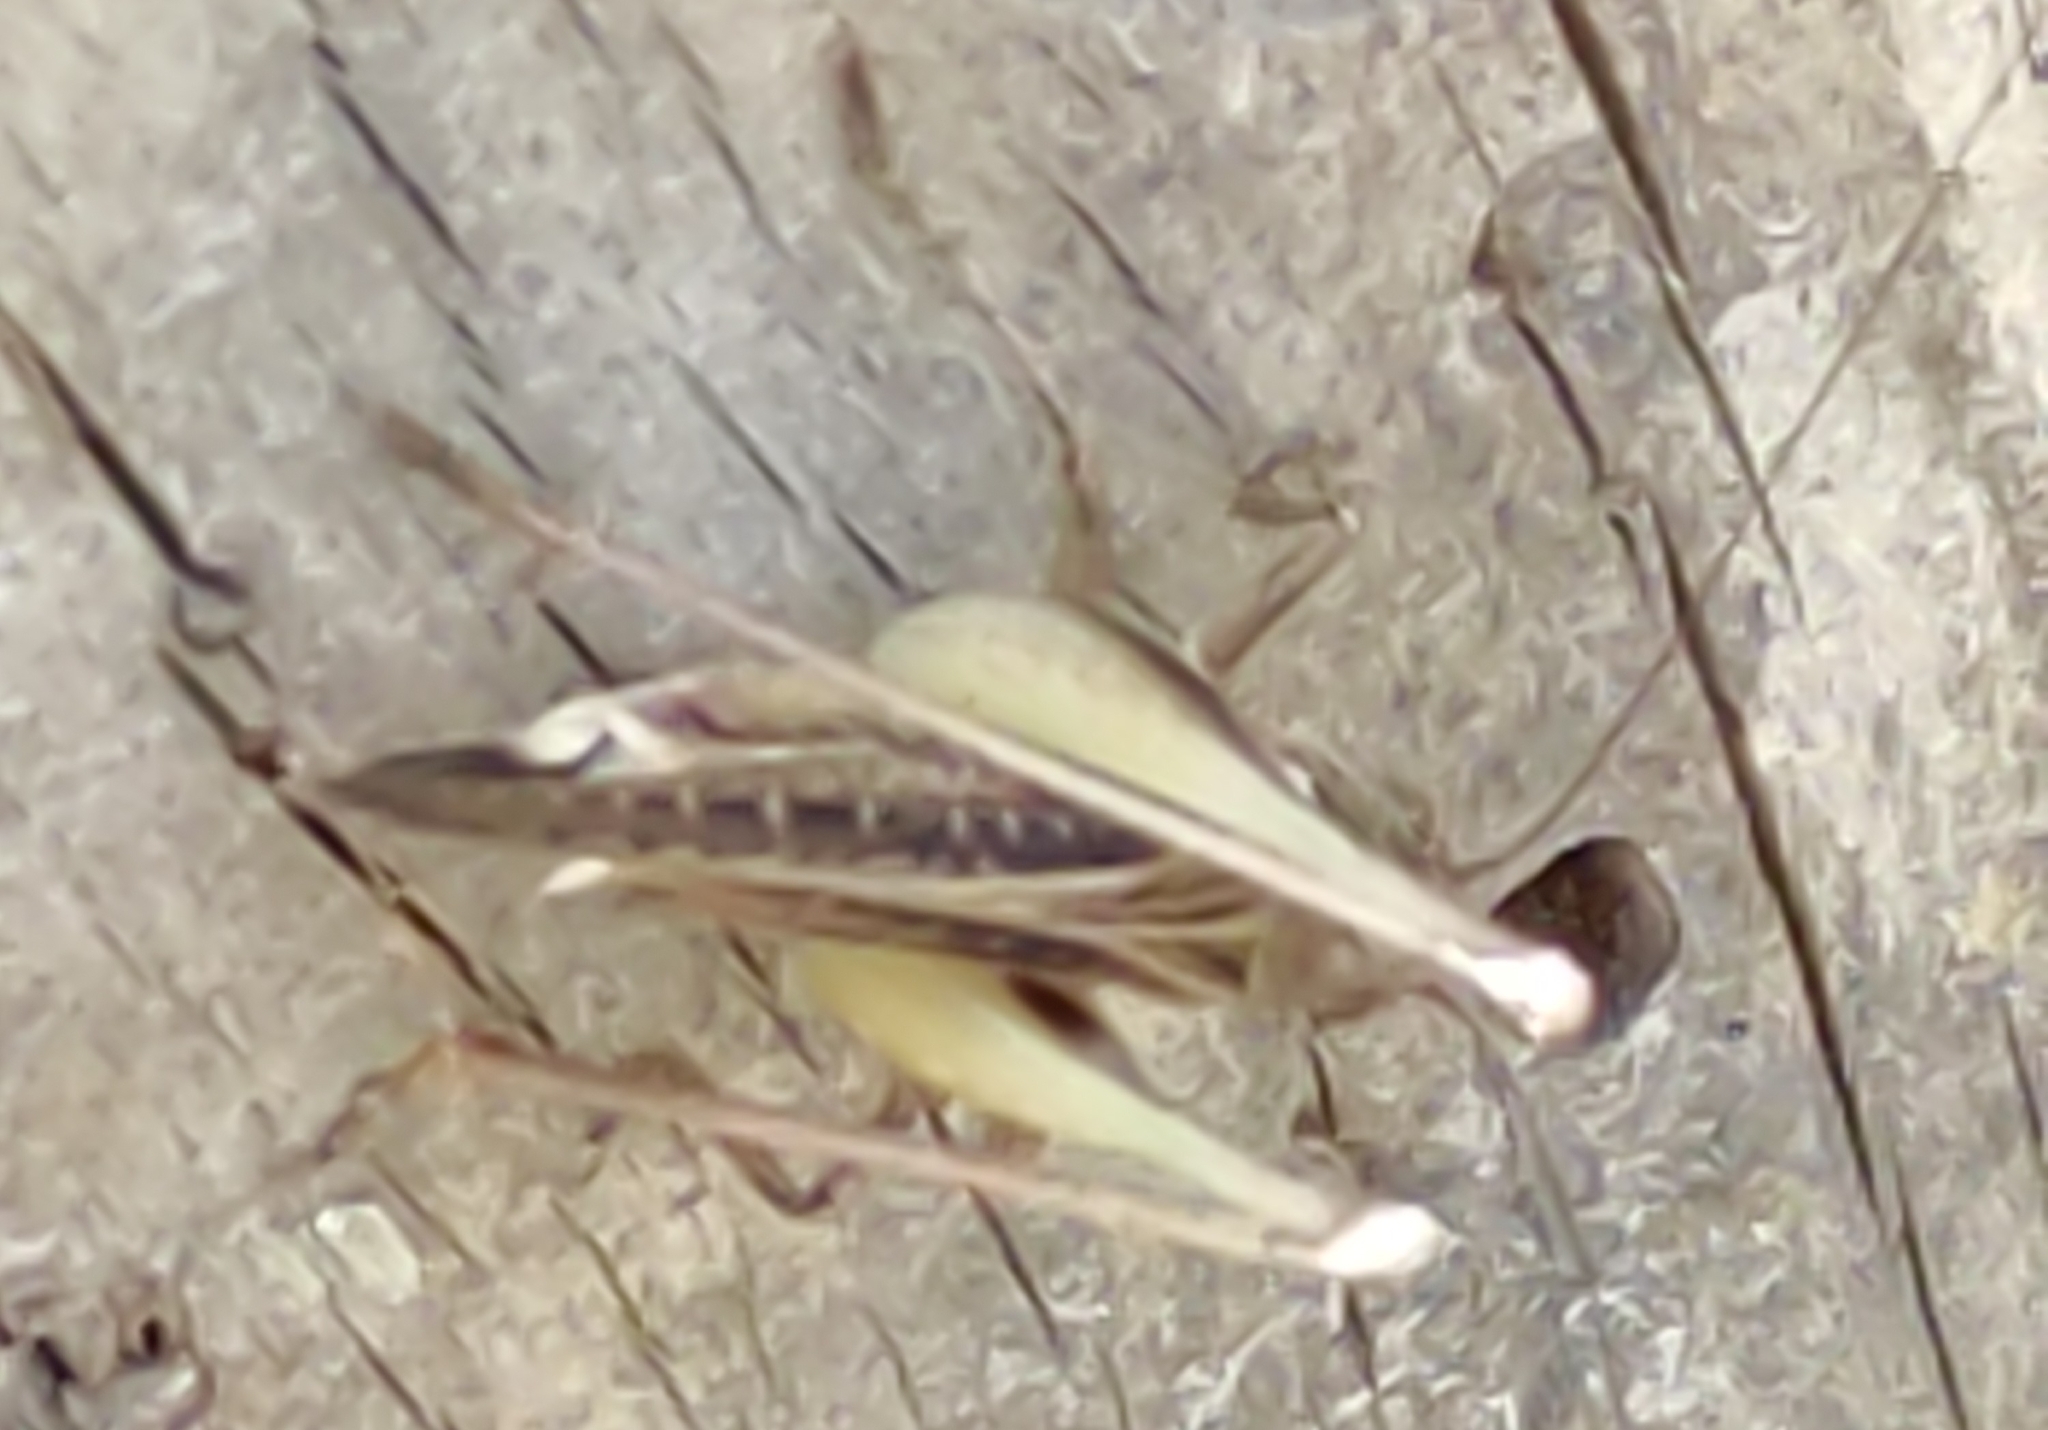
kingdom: Animalia
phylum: Arthropoda
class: Insecta
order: Orthoptera
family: Tettigoniidae
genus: Platycleis
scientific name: Platycleis albopunctata
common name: Grey bush-cricket
